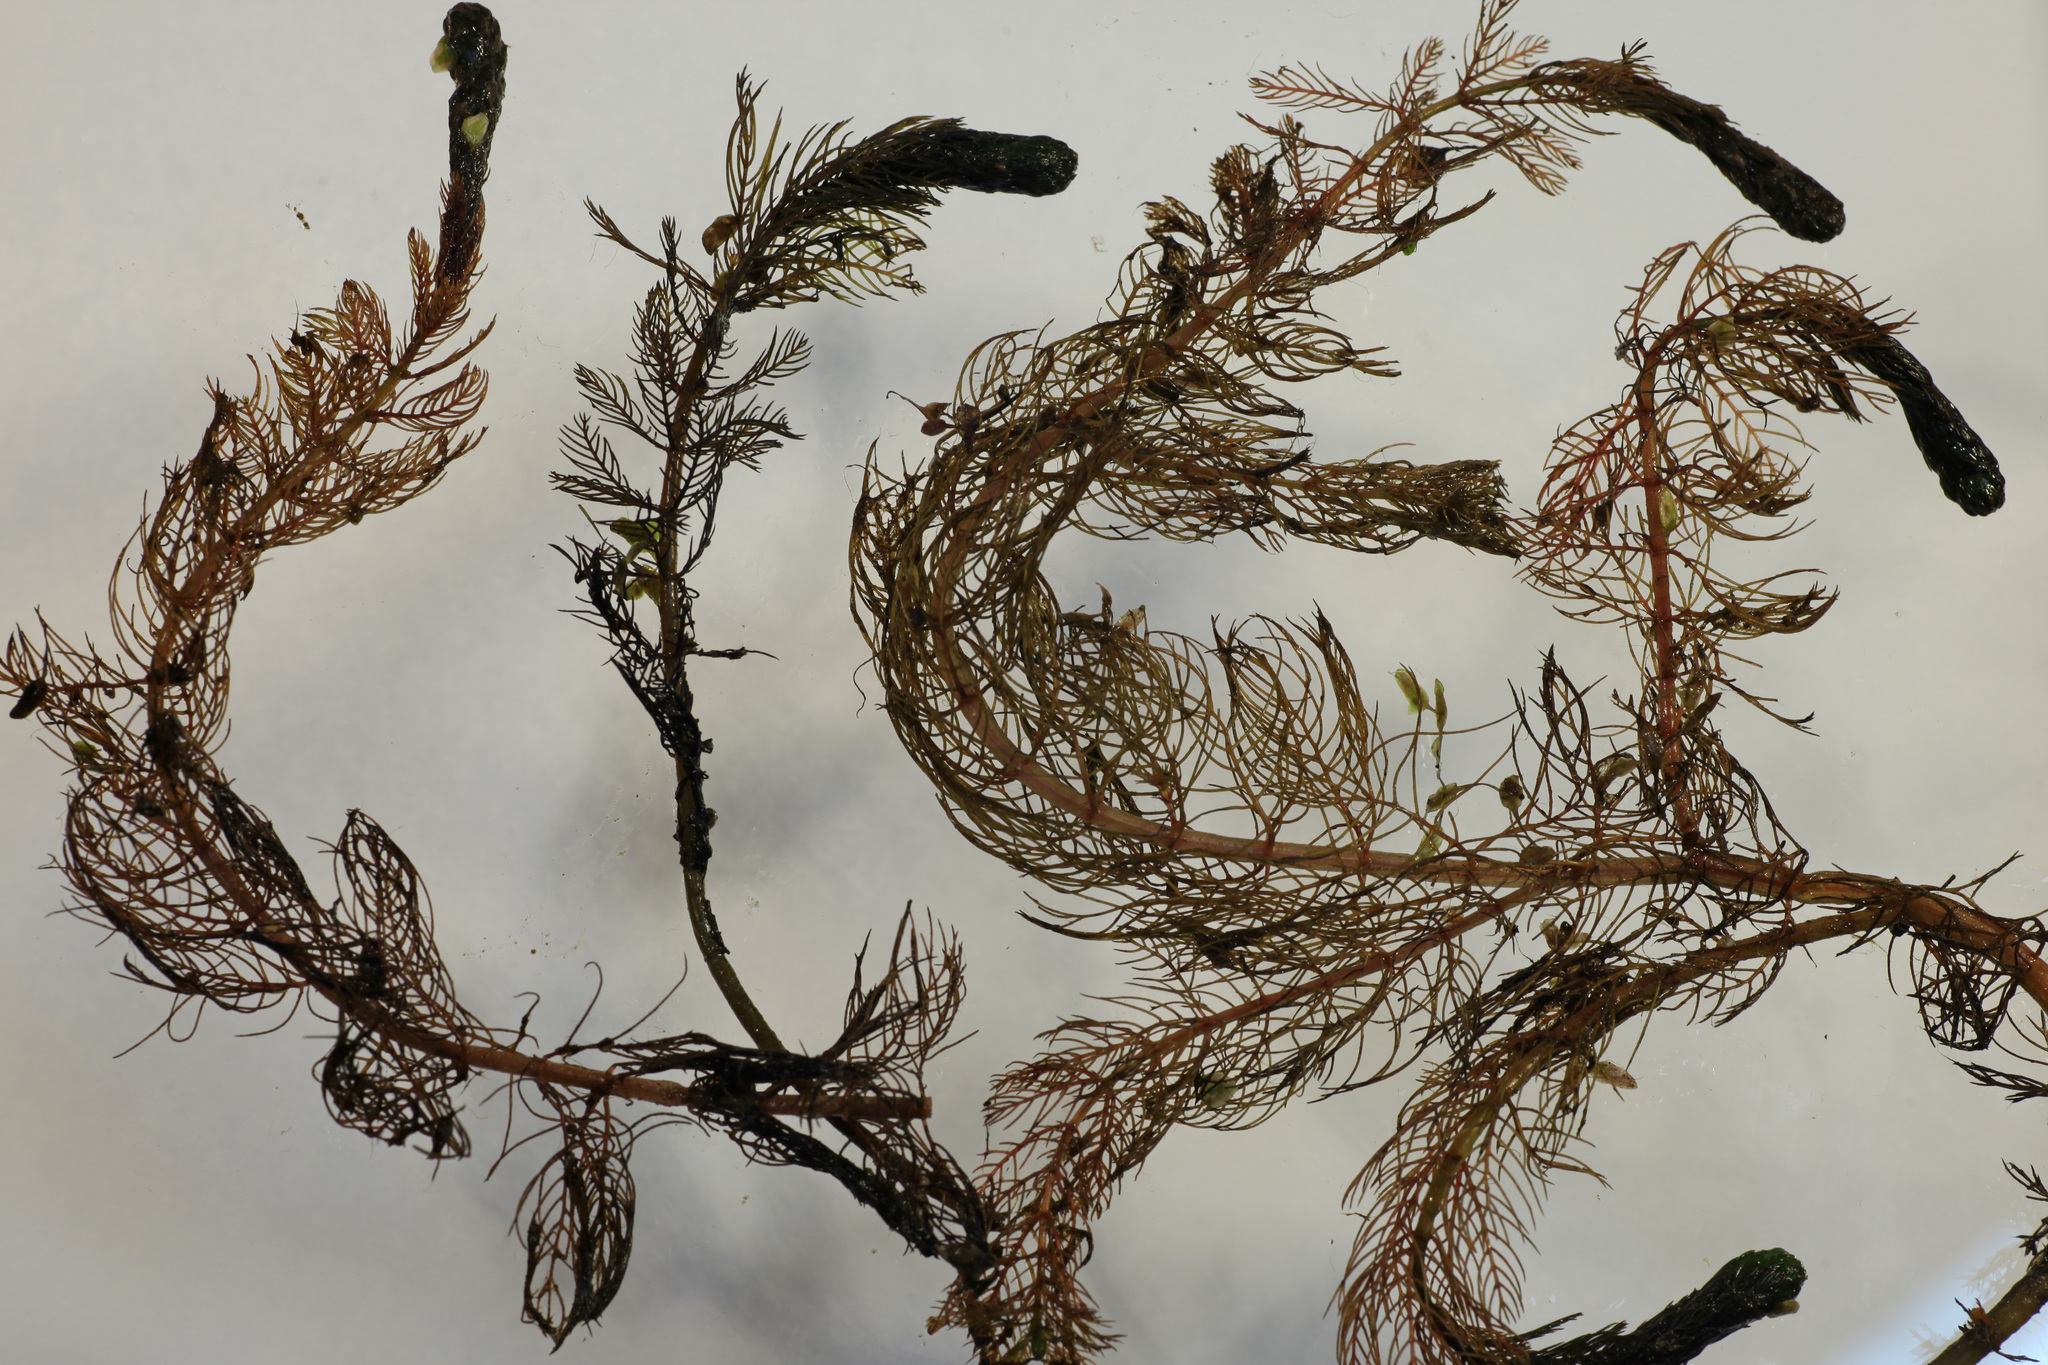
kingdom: Plantae
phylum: Tracheophyta
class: Magnoliopsida
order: Saxifragales
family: Haloragaceae
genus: Myriophyllum
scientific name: Myriophyllum sibiricum
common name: Siberian water-milfoil
